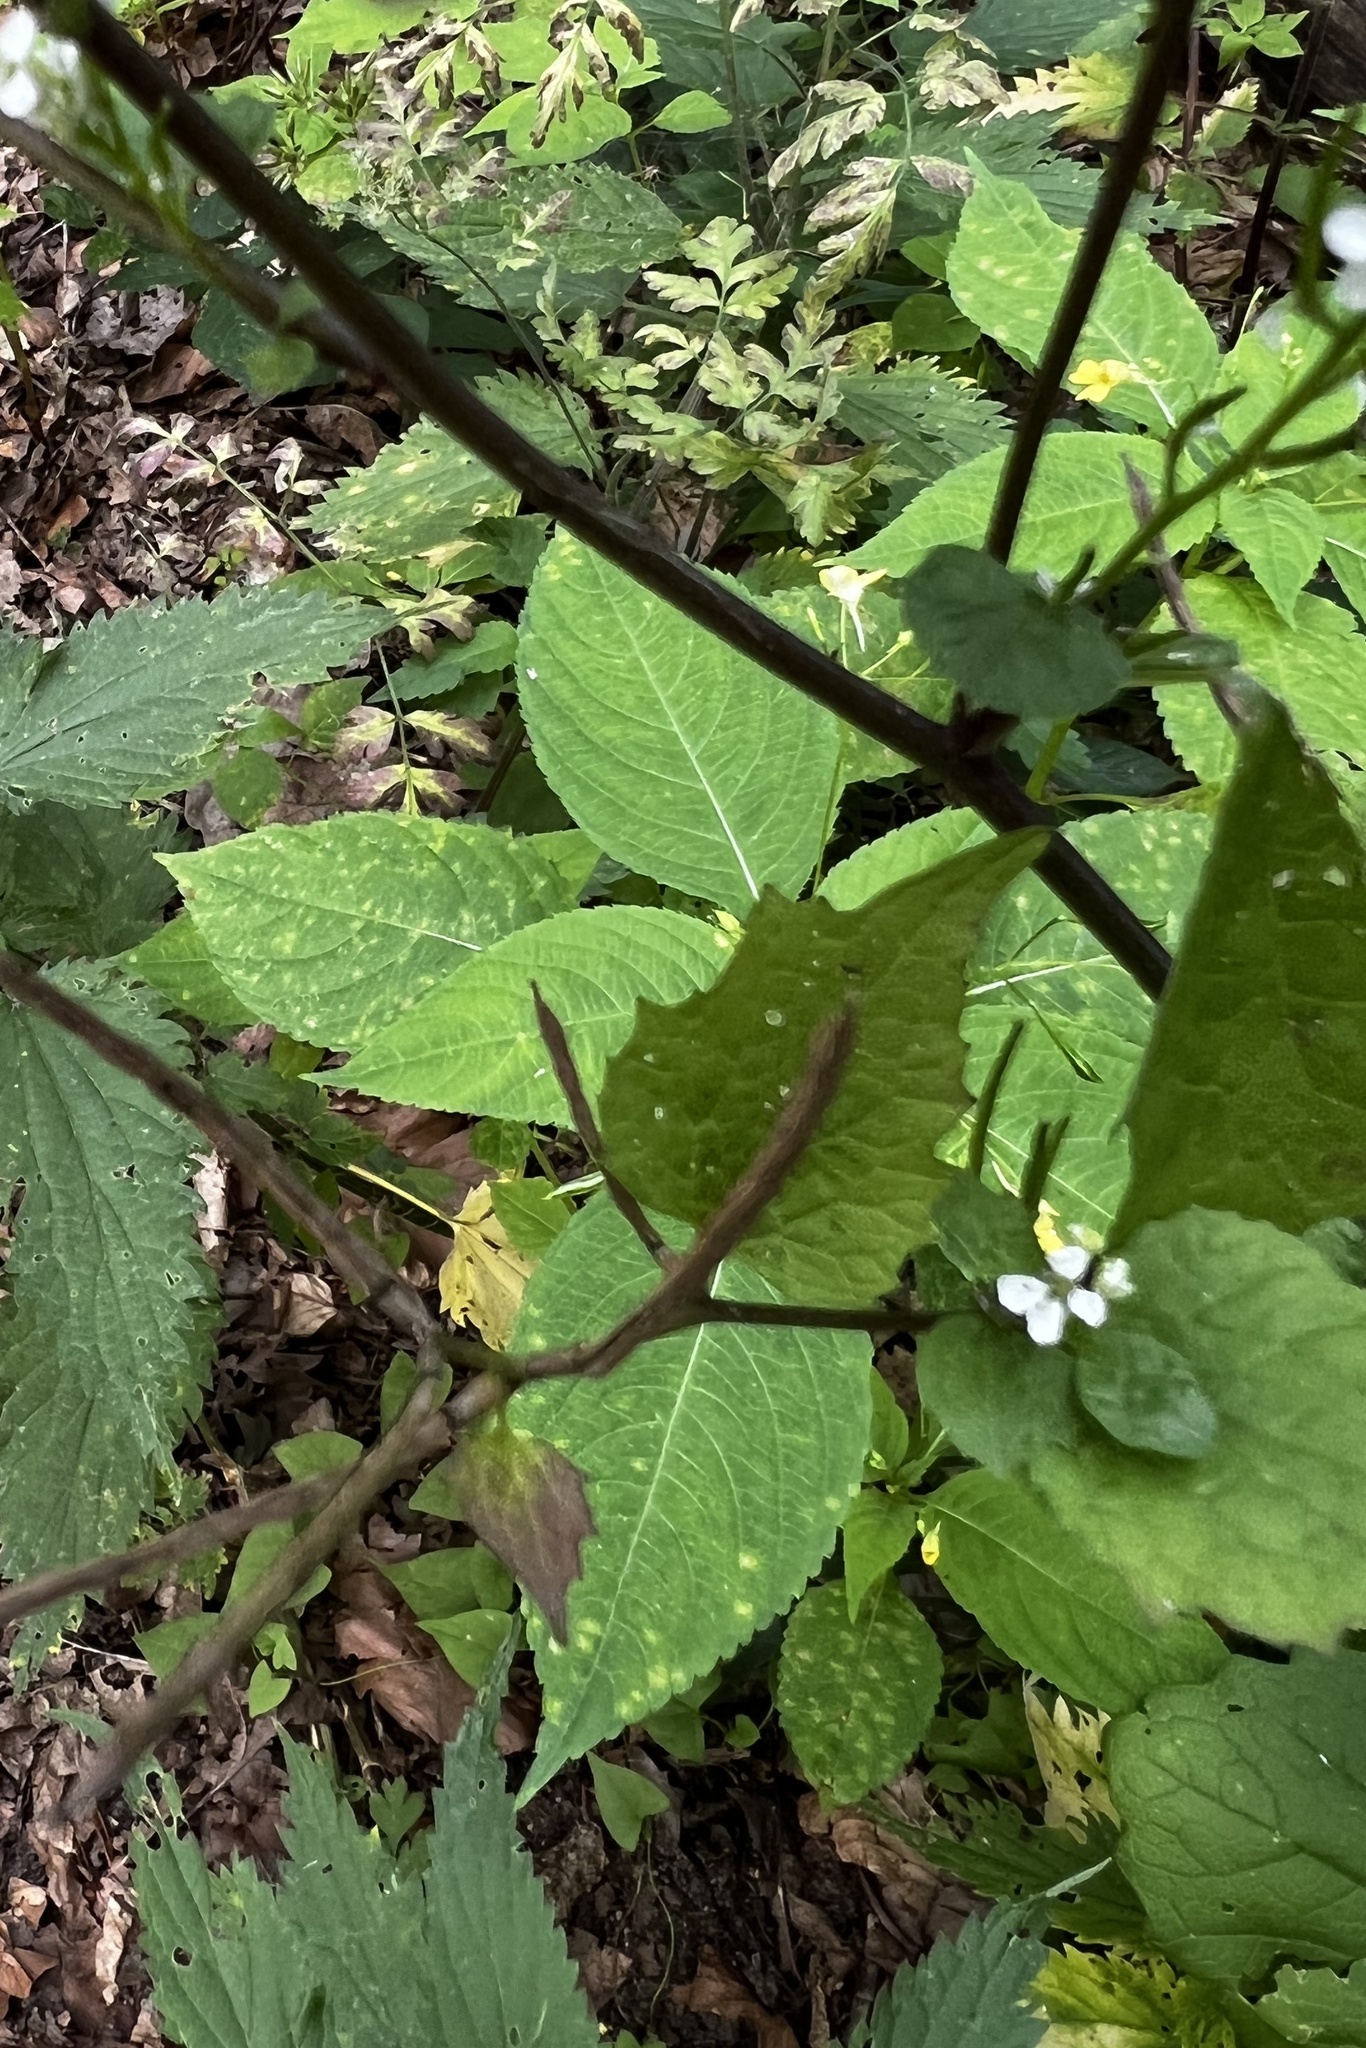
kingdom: Plantae
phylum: Tracheophyta
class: Magnoliopsida
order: Brassicales
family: Brassicaceae
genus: Alliaria
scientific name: Alliaria petiolata
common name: Garlic mustard
